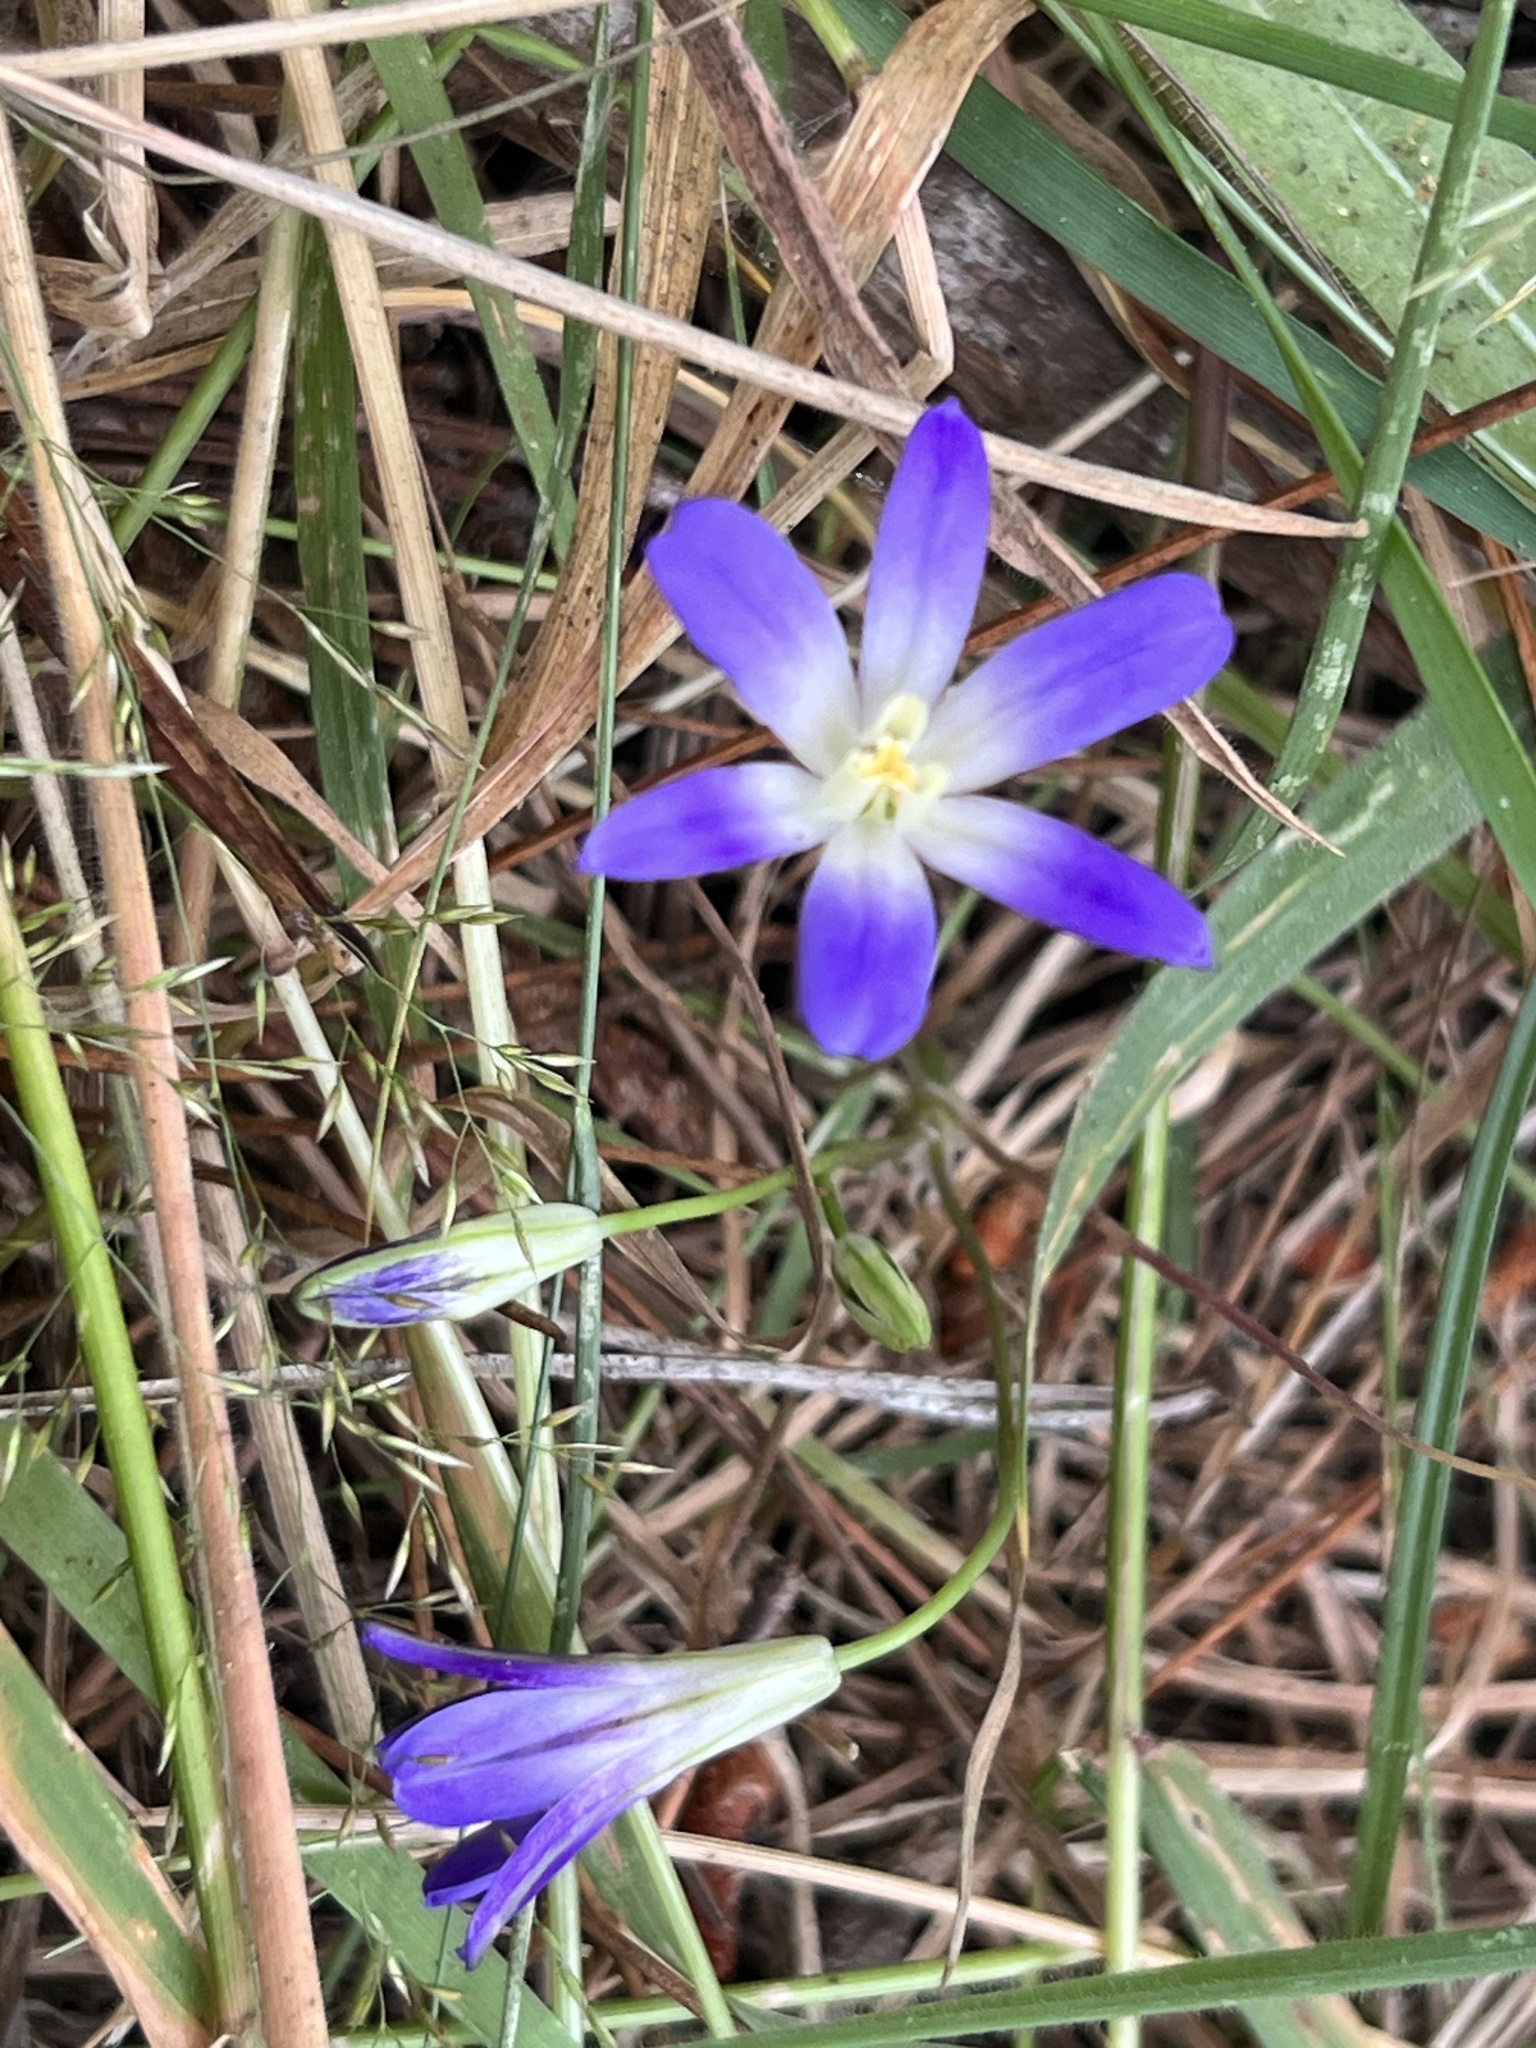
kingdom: Plantae
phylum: Tracheophyta
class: Liliopsida
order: Asparagales
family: Asparagaceae
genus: Brodiaea
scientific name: Brodiaea terrestris
